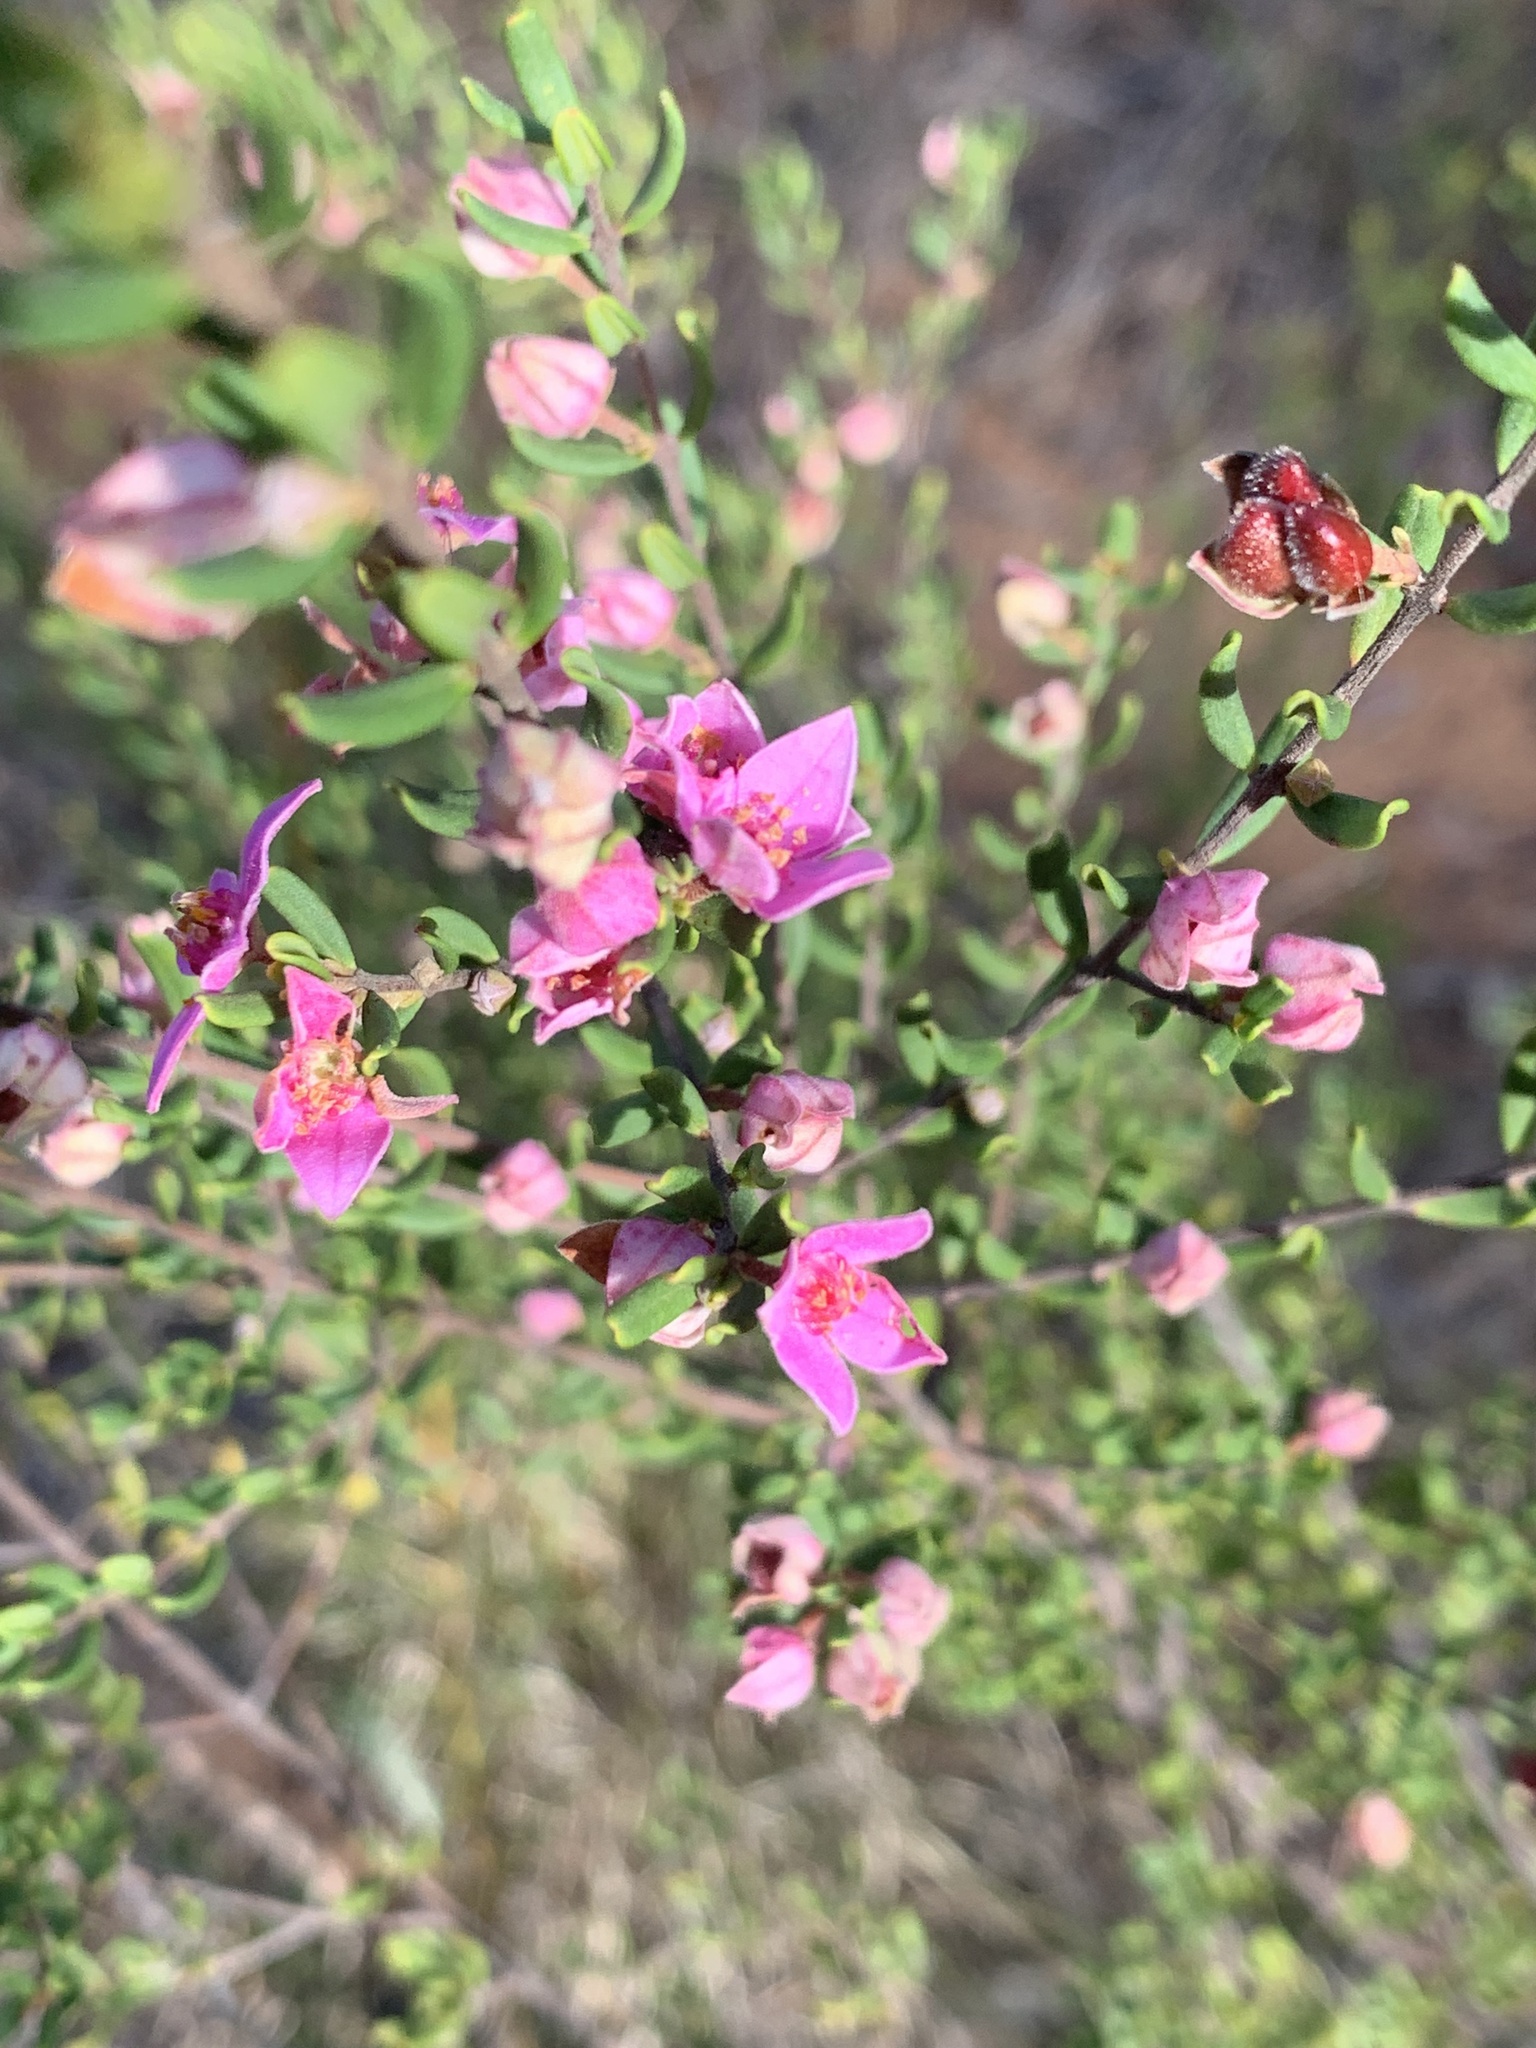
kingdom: Plantae
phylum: Tracheophyta
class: Magnoliopsida
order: Sapindales
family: Rutaceae
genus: Boronia
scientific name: Boronia glabra
